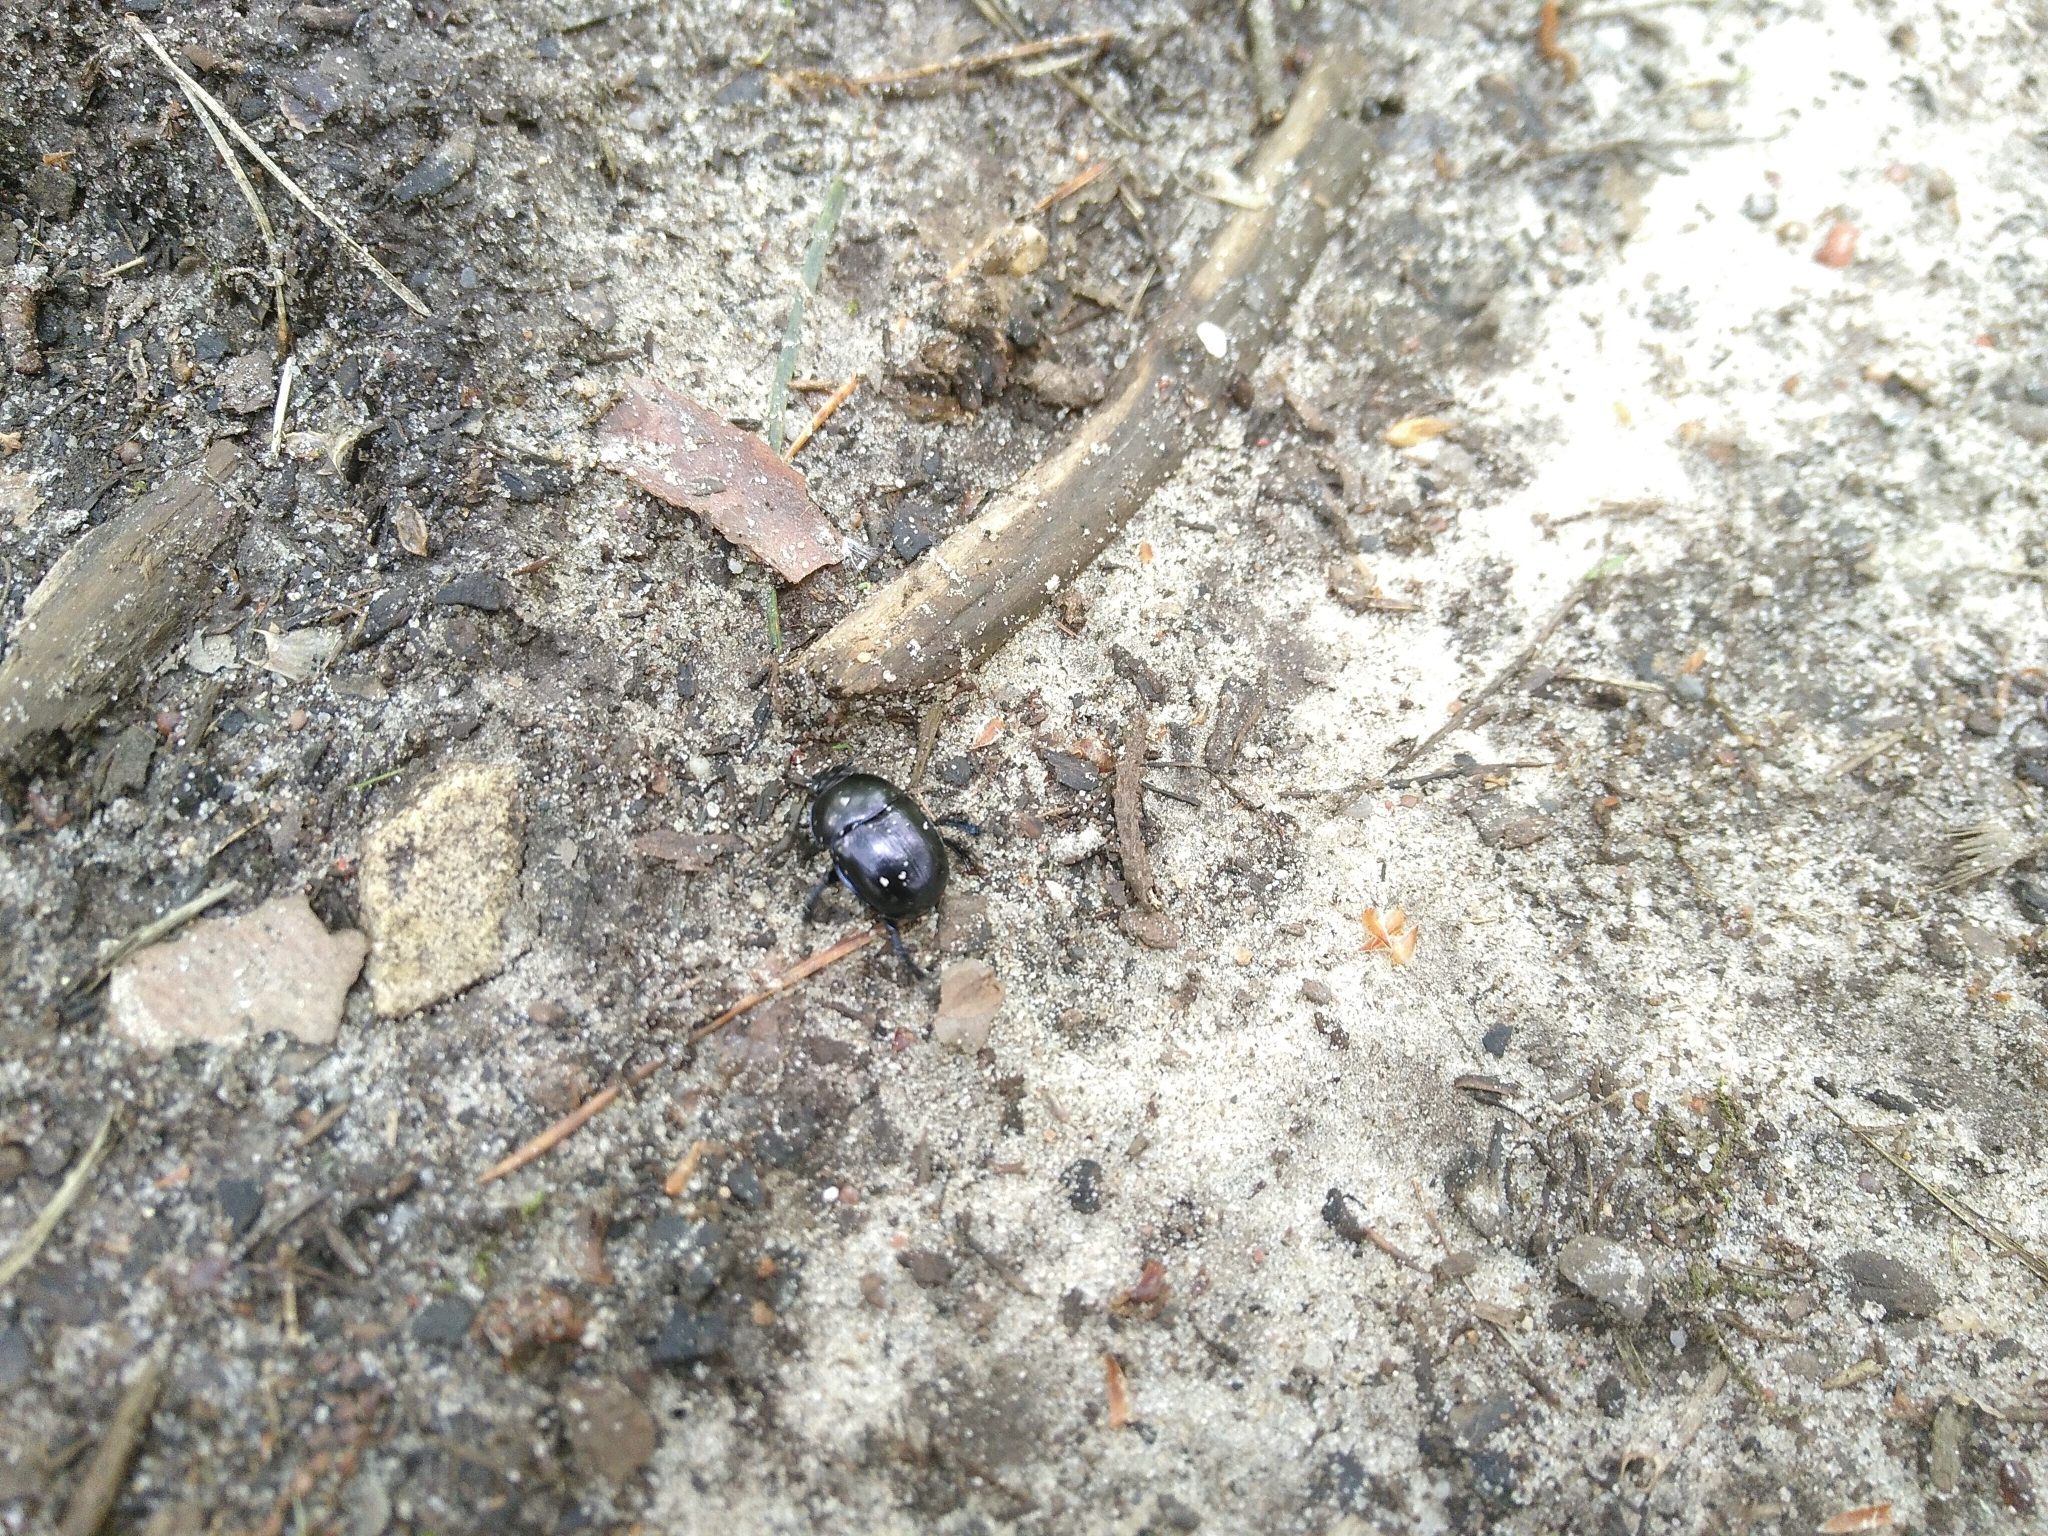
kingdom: Animalia
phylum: Arthropoda
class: Insecta
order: Coleoptera
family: Geotrupidae
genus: Anoplotrupes
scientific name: Anoplotrupes stercorosus
